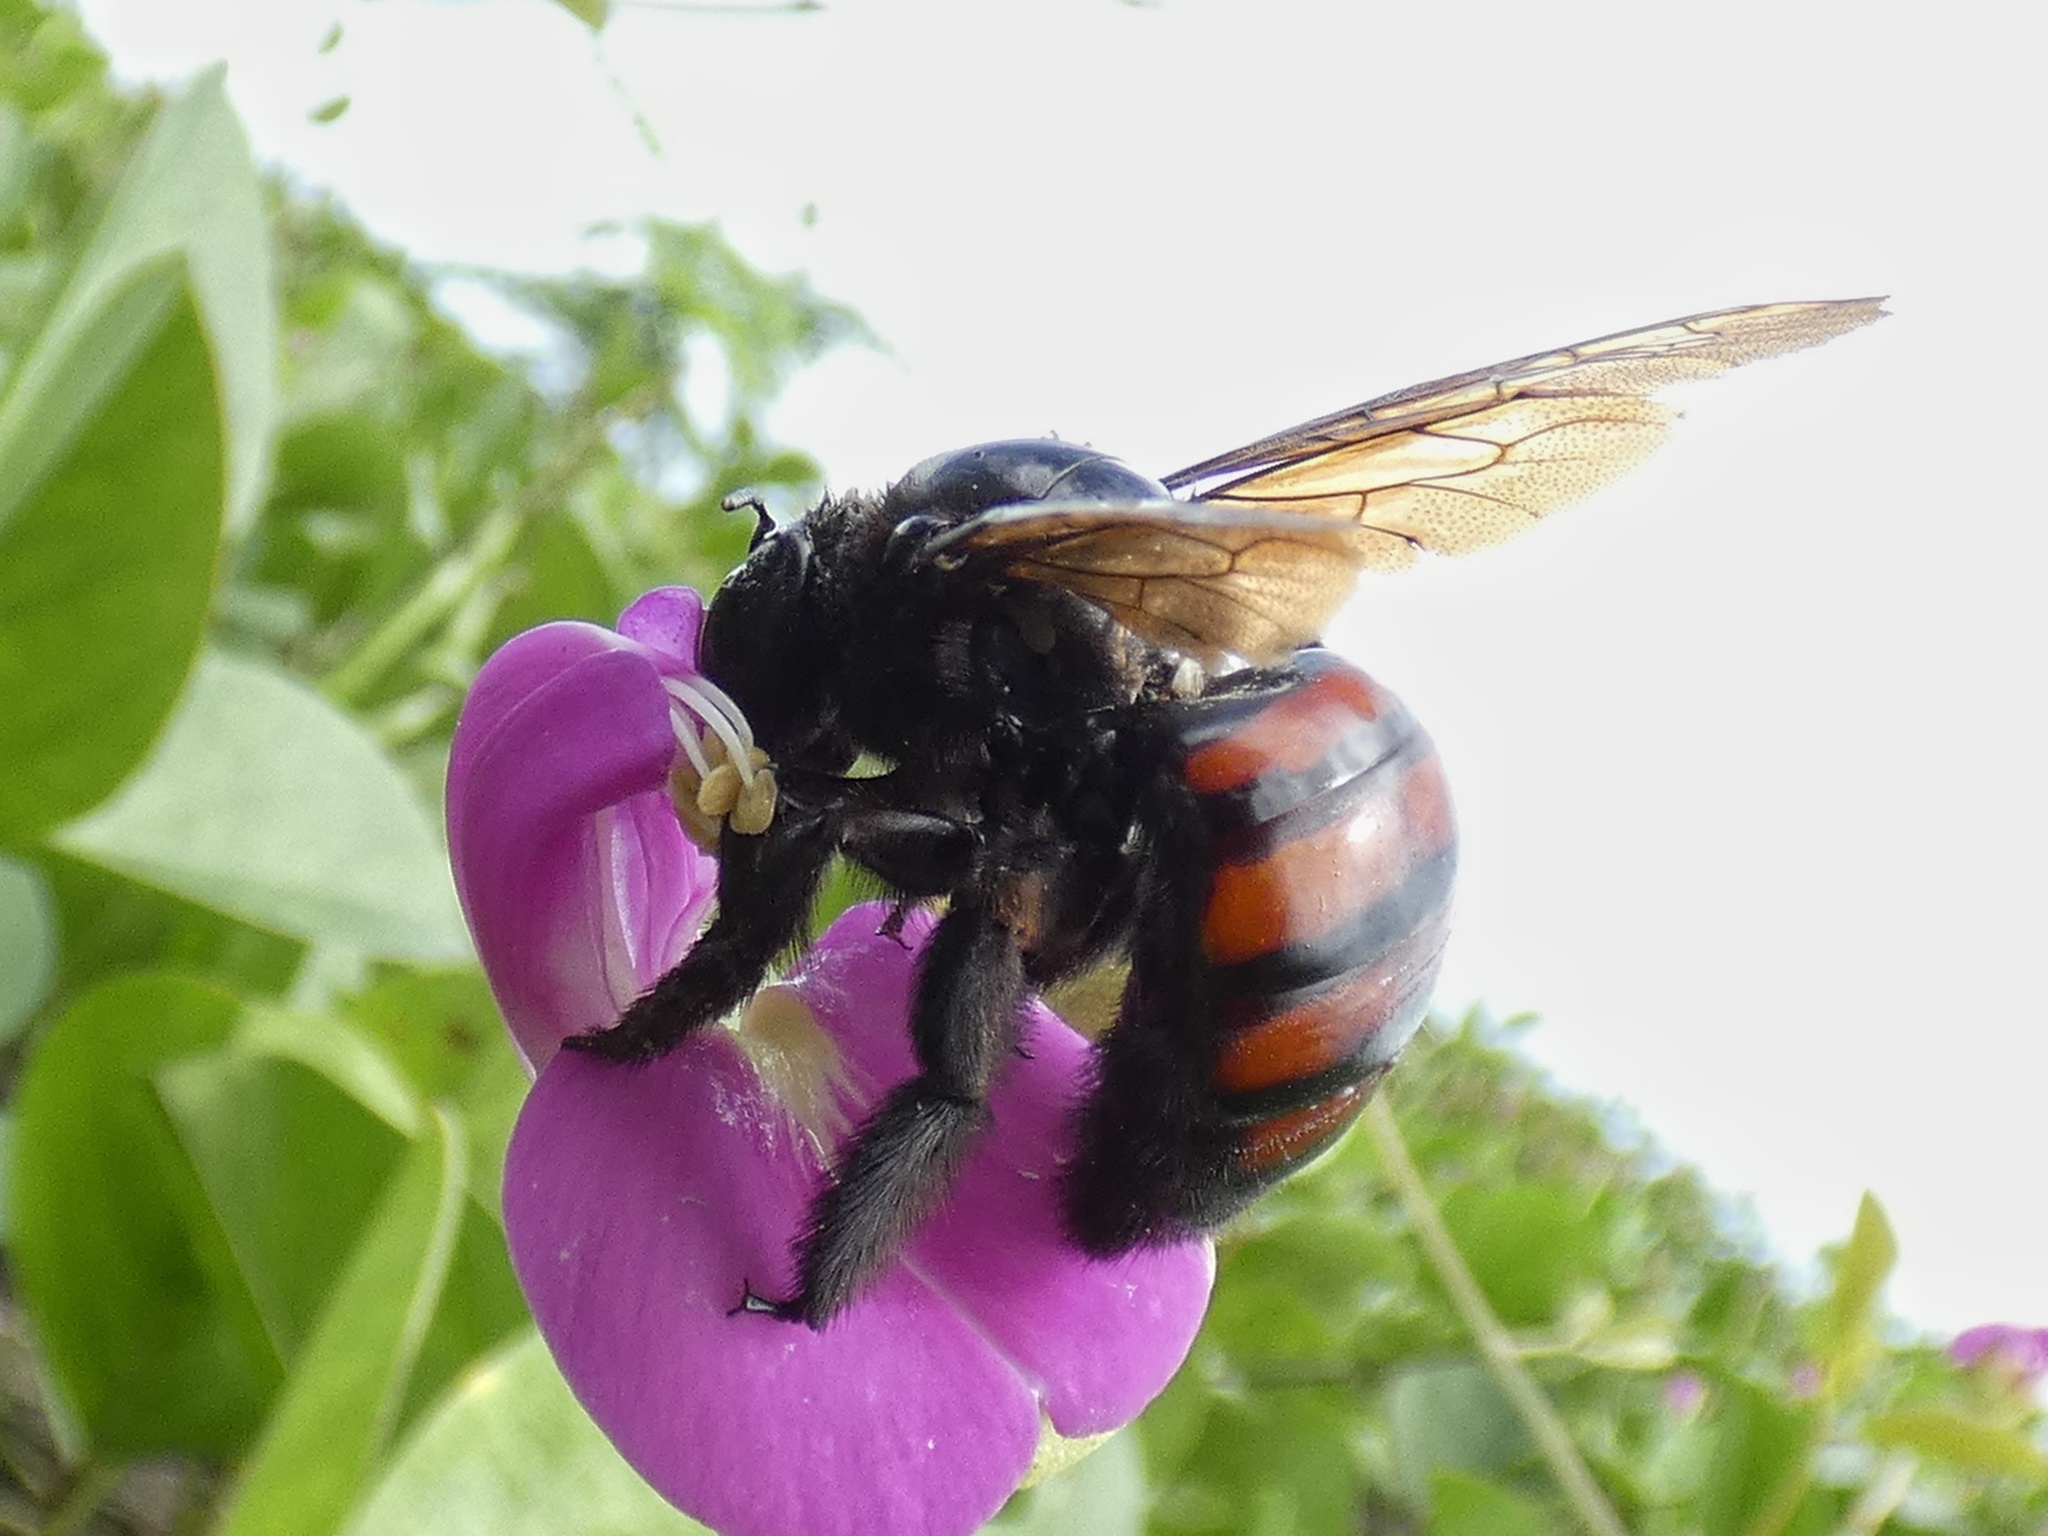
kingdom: Animalia
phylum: Arthropoda
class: Insecta
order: Hymenoptera
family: Apidae
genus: Xylocopa
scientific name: Xylocopa frontalis
